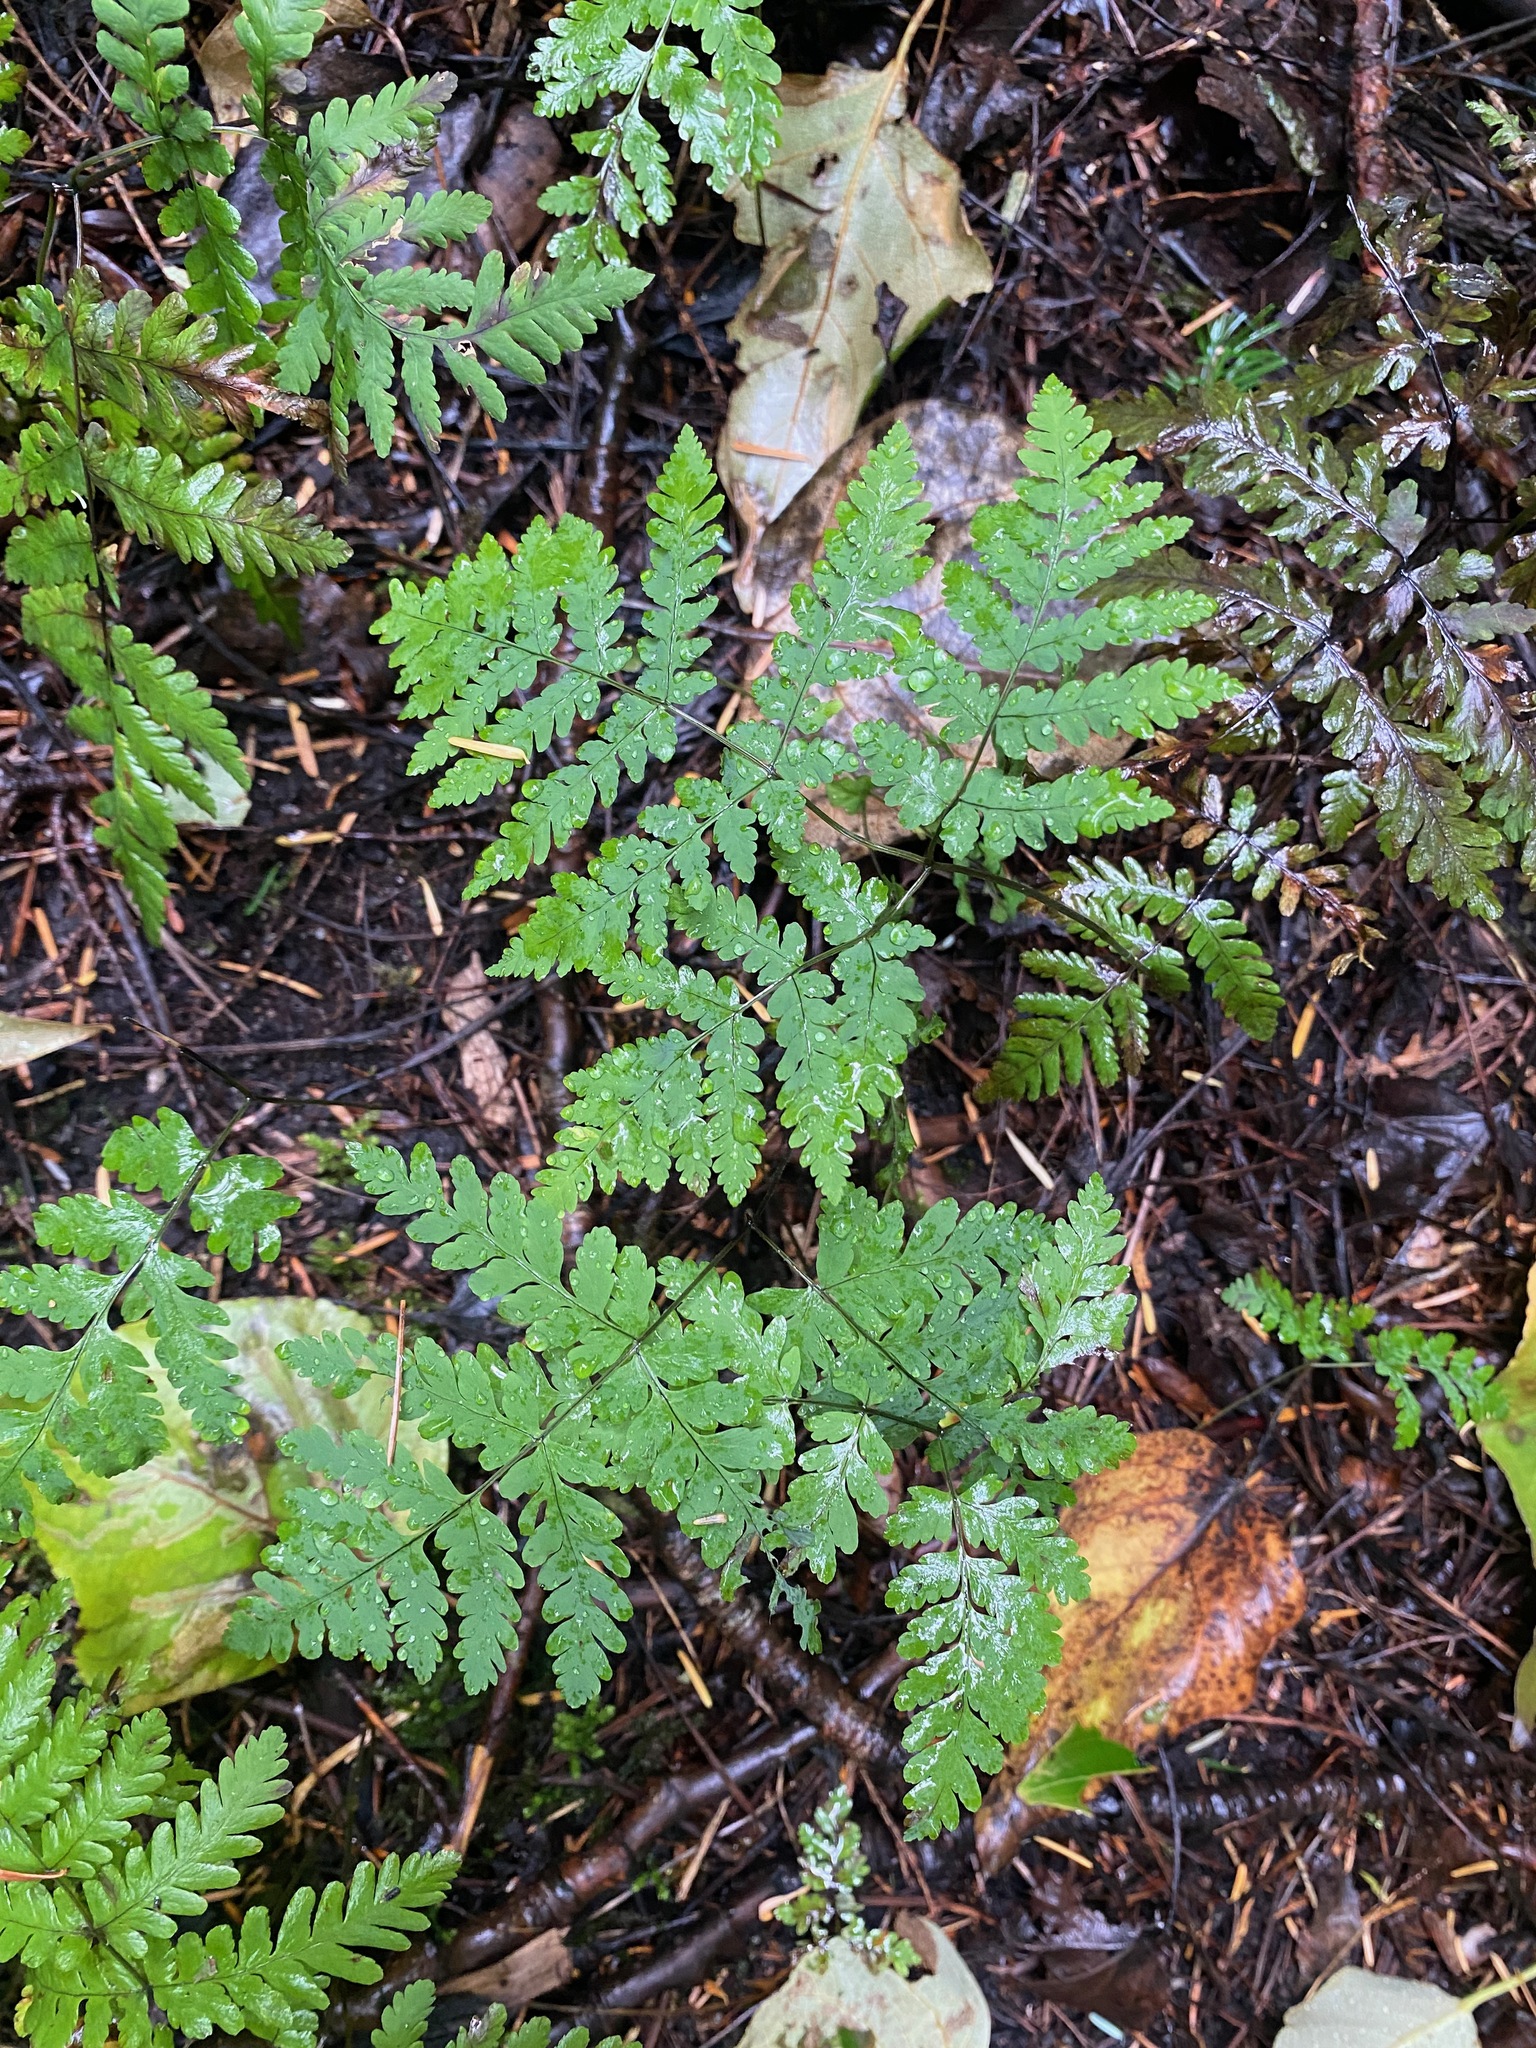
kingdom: Plantae
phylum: Tracheophyta
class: Polypodiopsida
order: Polypodiales
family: Cystopteridaceae
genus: Gymnocarpium
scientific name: Gymnocarpium dryopteris
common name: Oak fern
